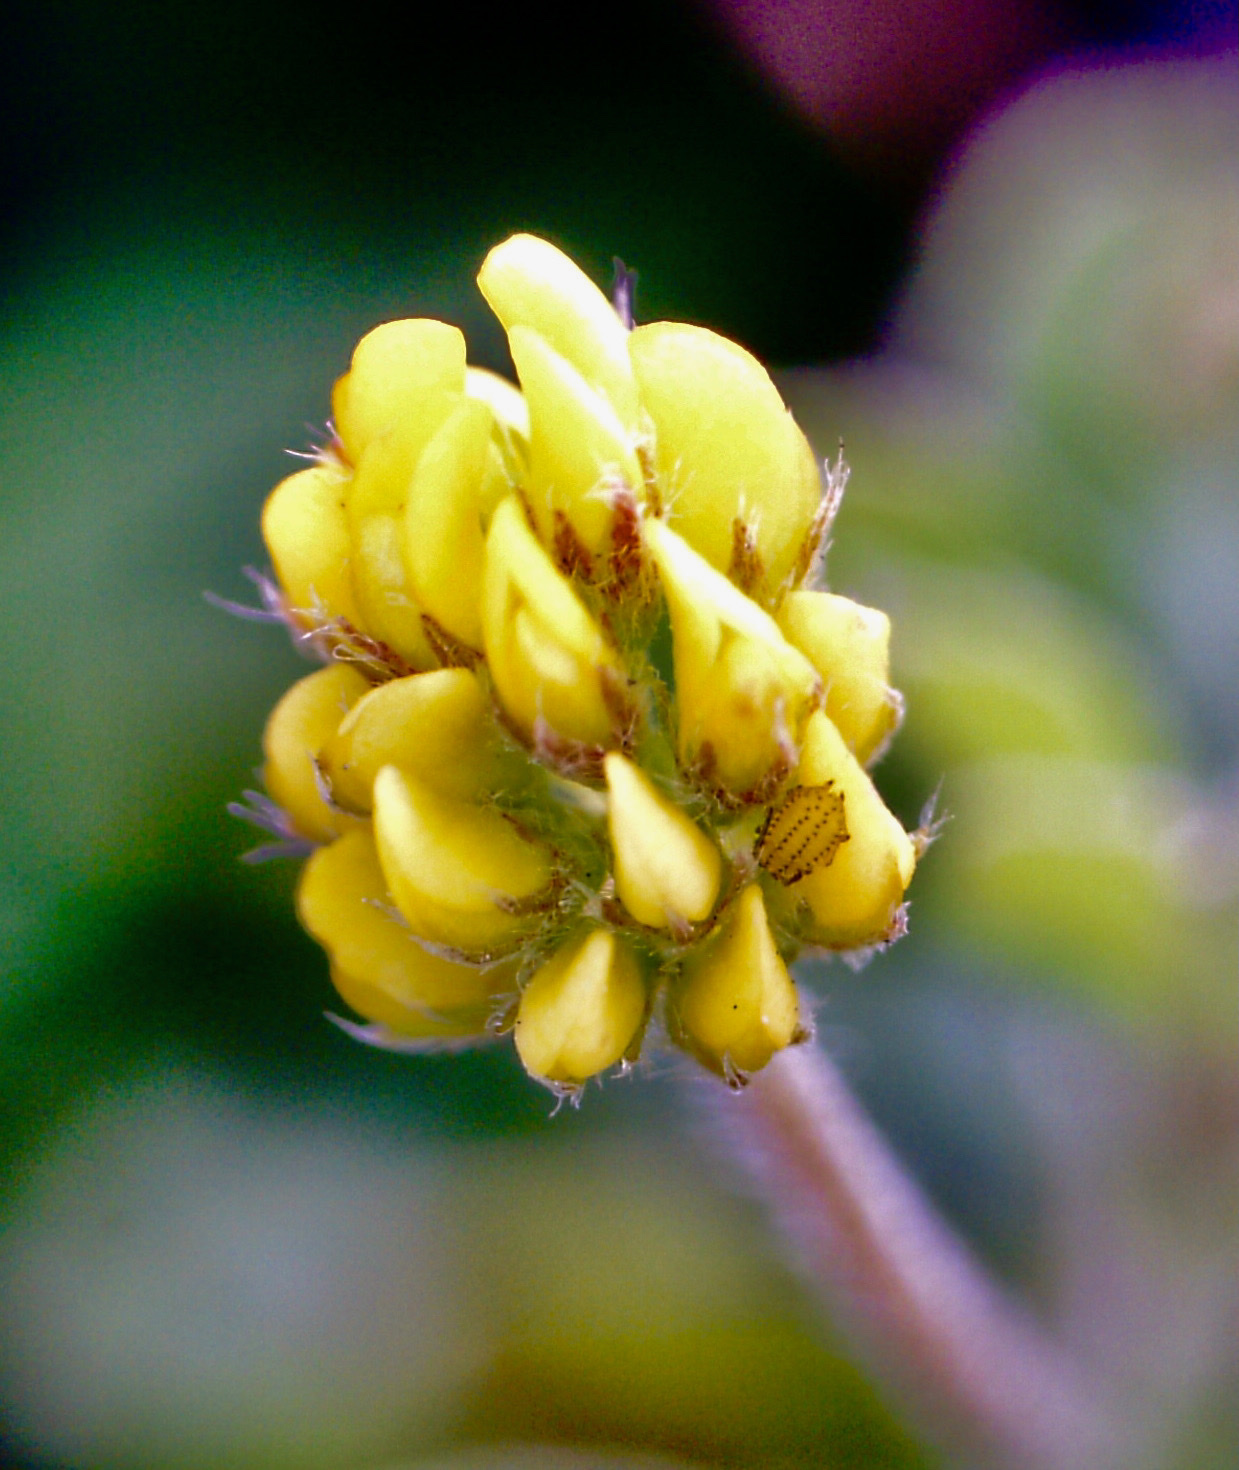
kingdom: Plantae
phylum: Tracheophyta
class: Magnoliopsida
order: Fabales
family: Fabaceae
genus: Medicago
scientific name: Medicago lupulina
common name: Black medick
